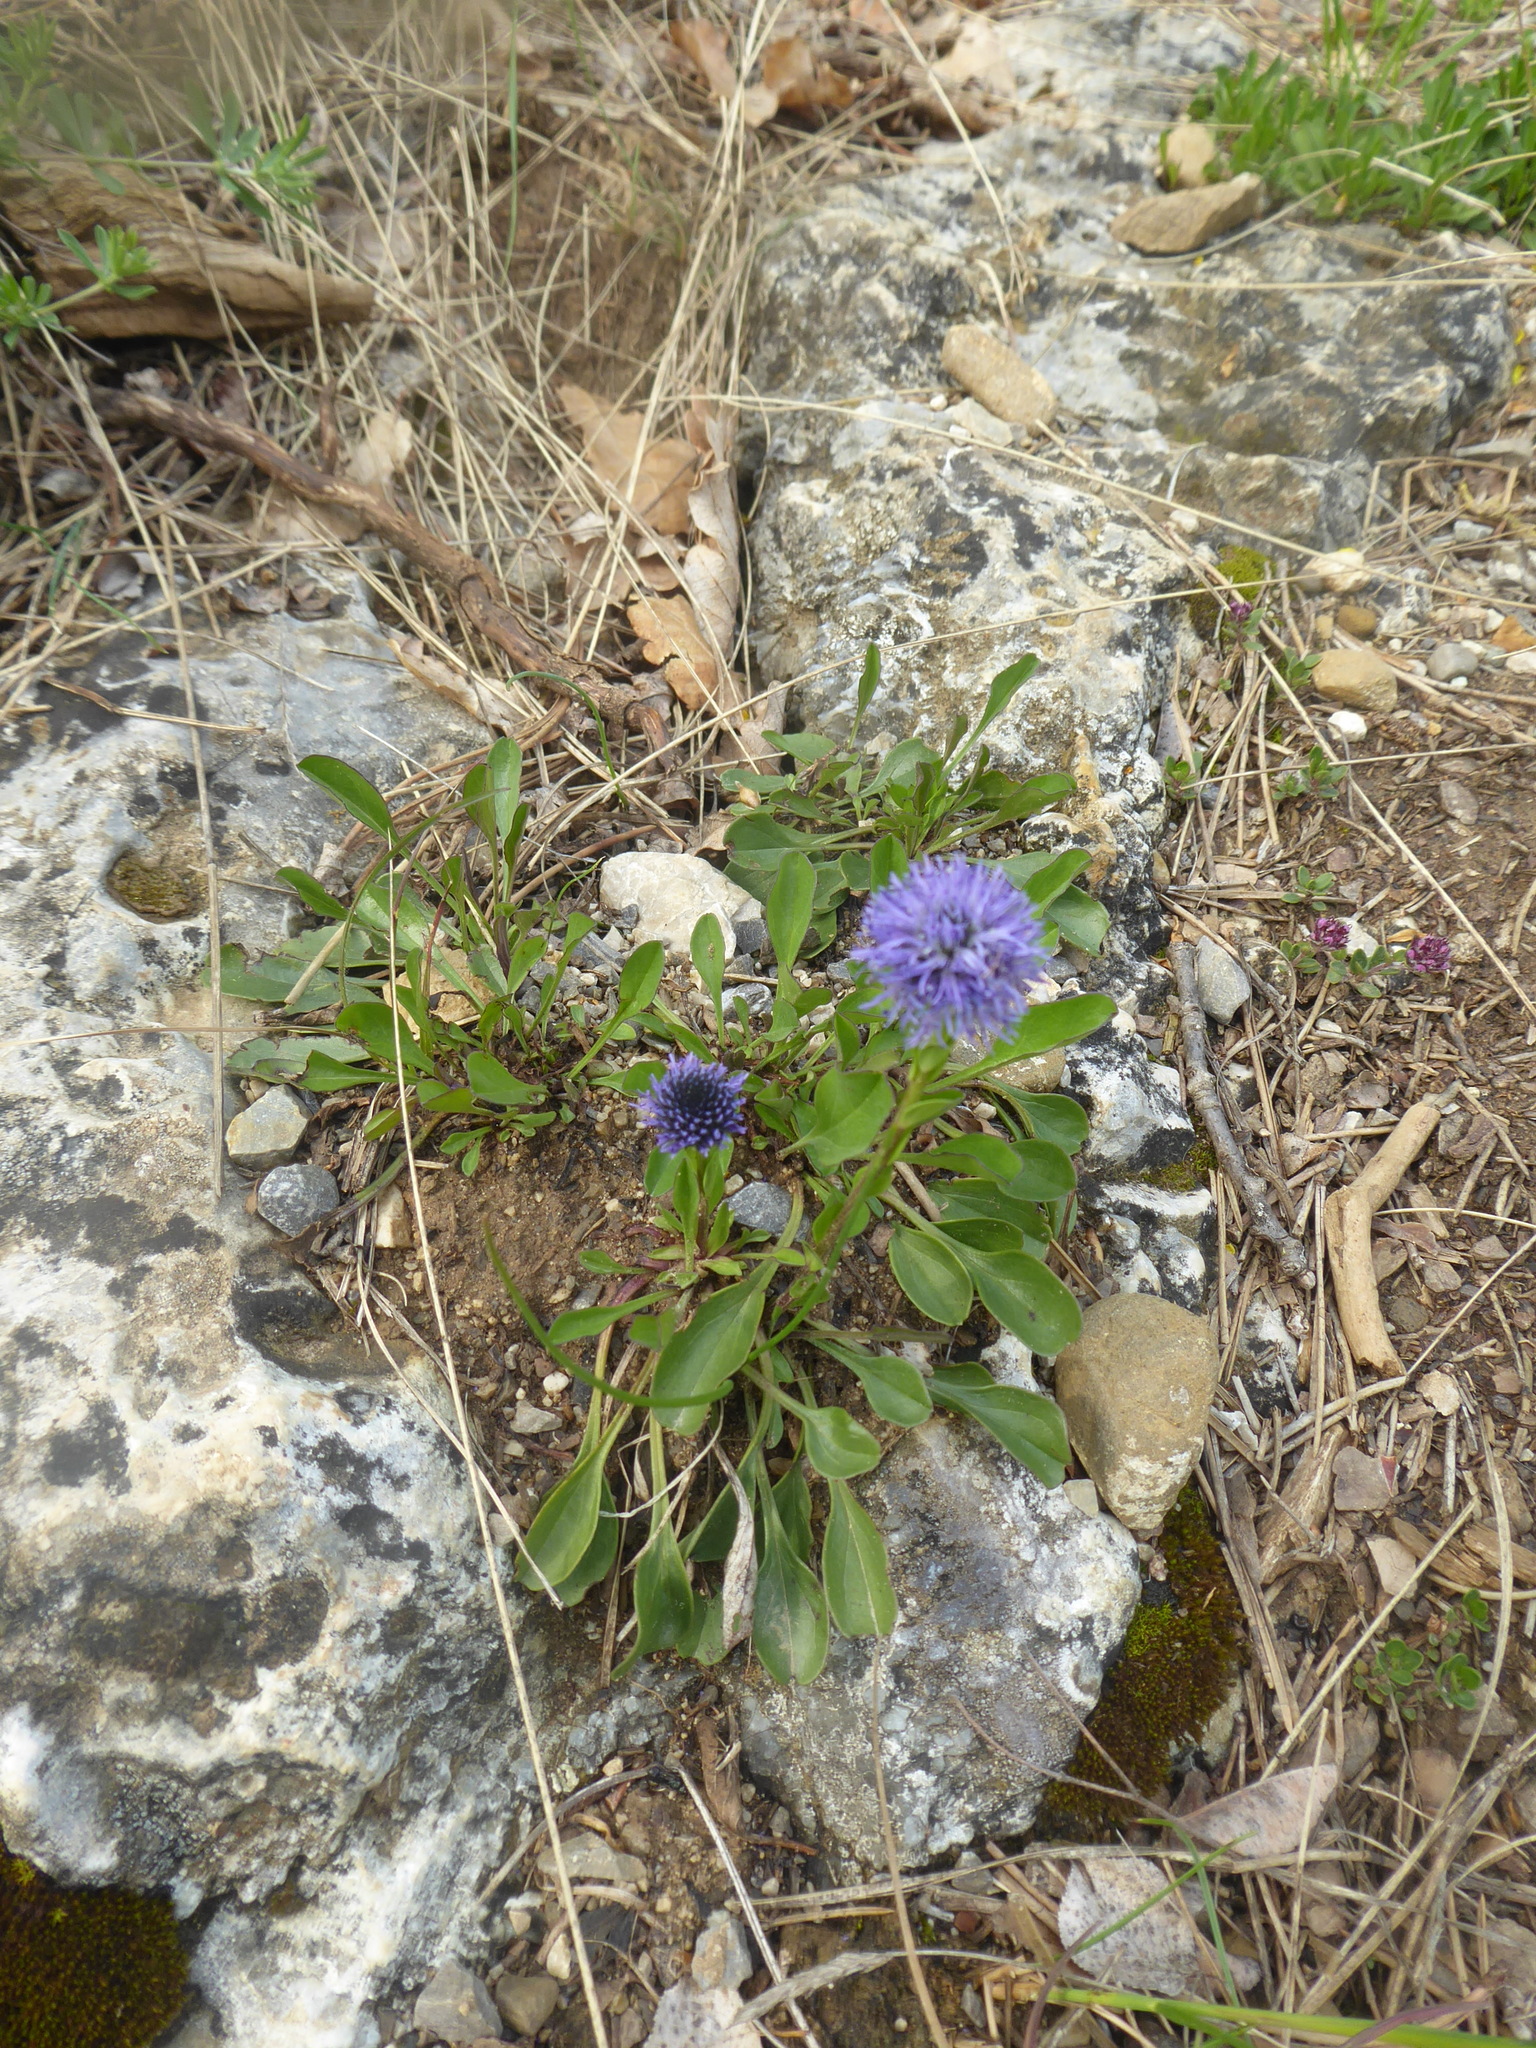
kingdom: Plantae
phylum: Tracheophyta
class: Magnoliopsida
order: Lamiales
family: Plantaginaceae
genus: Globularia
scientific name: Globularia bisnagarica
